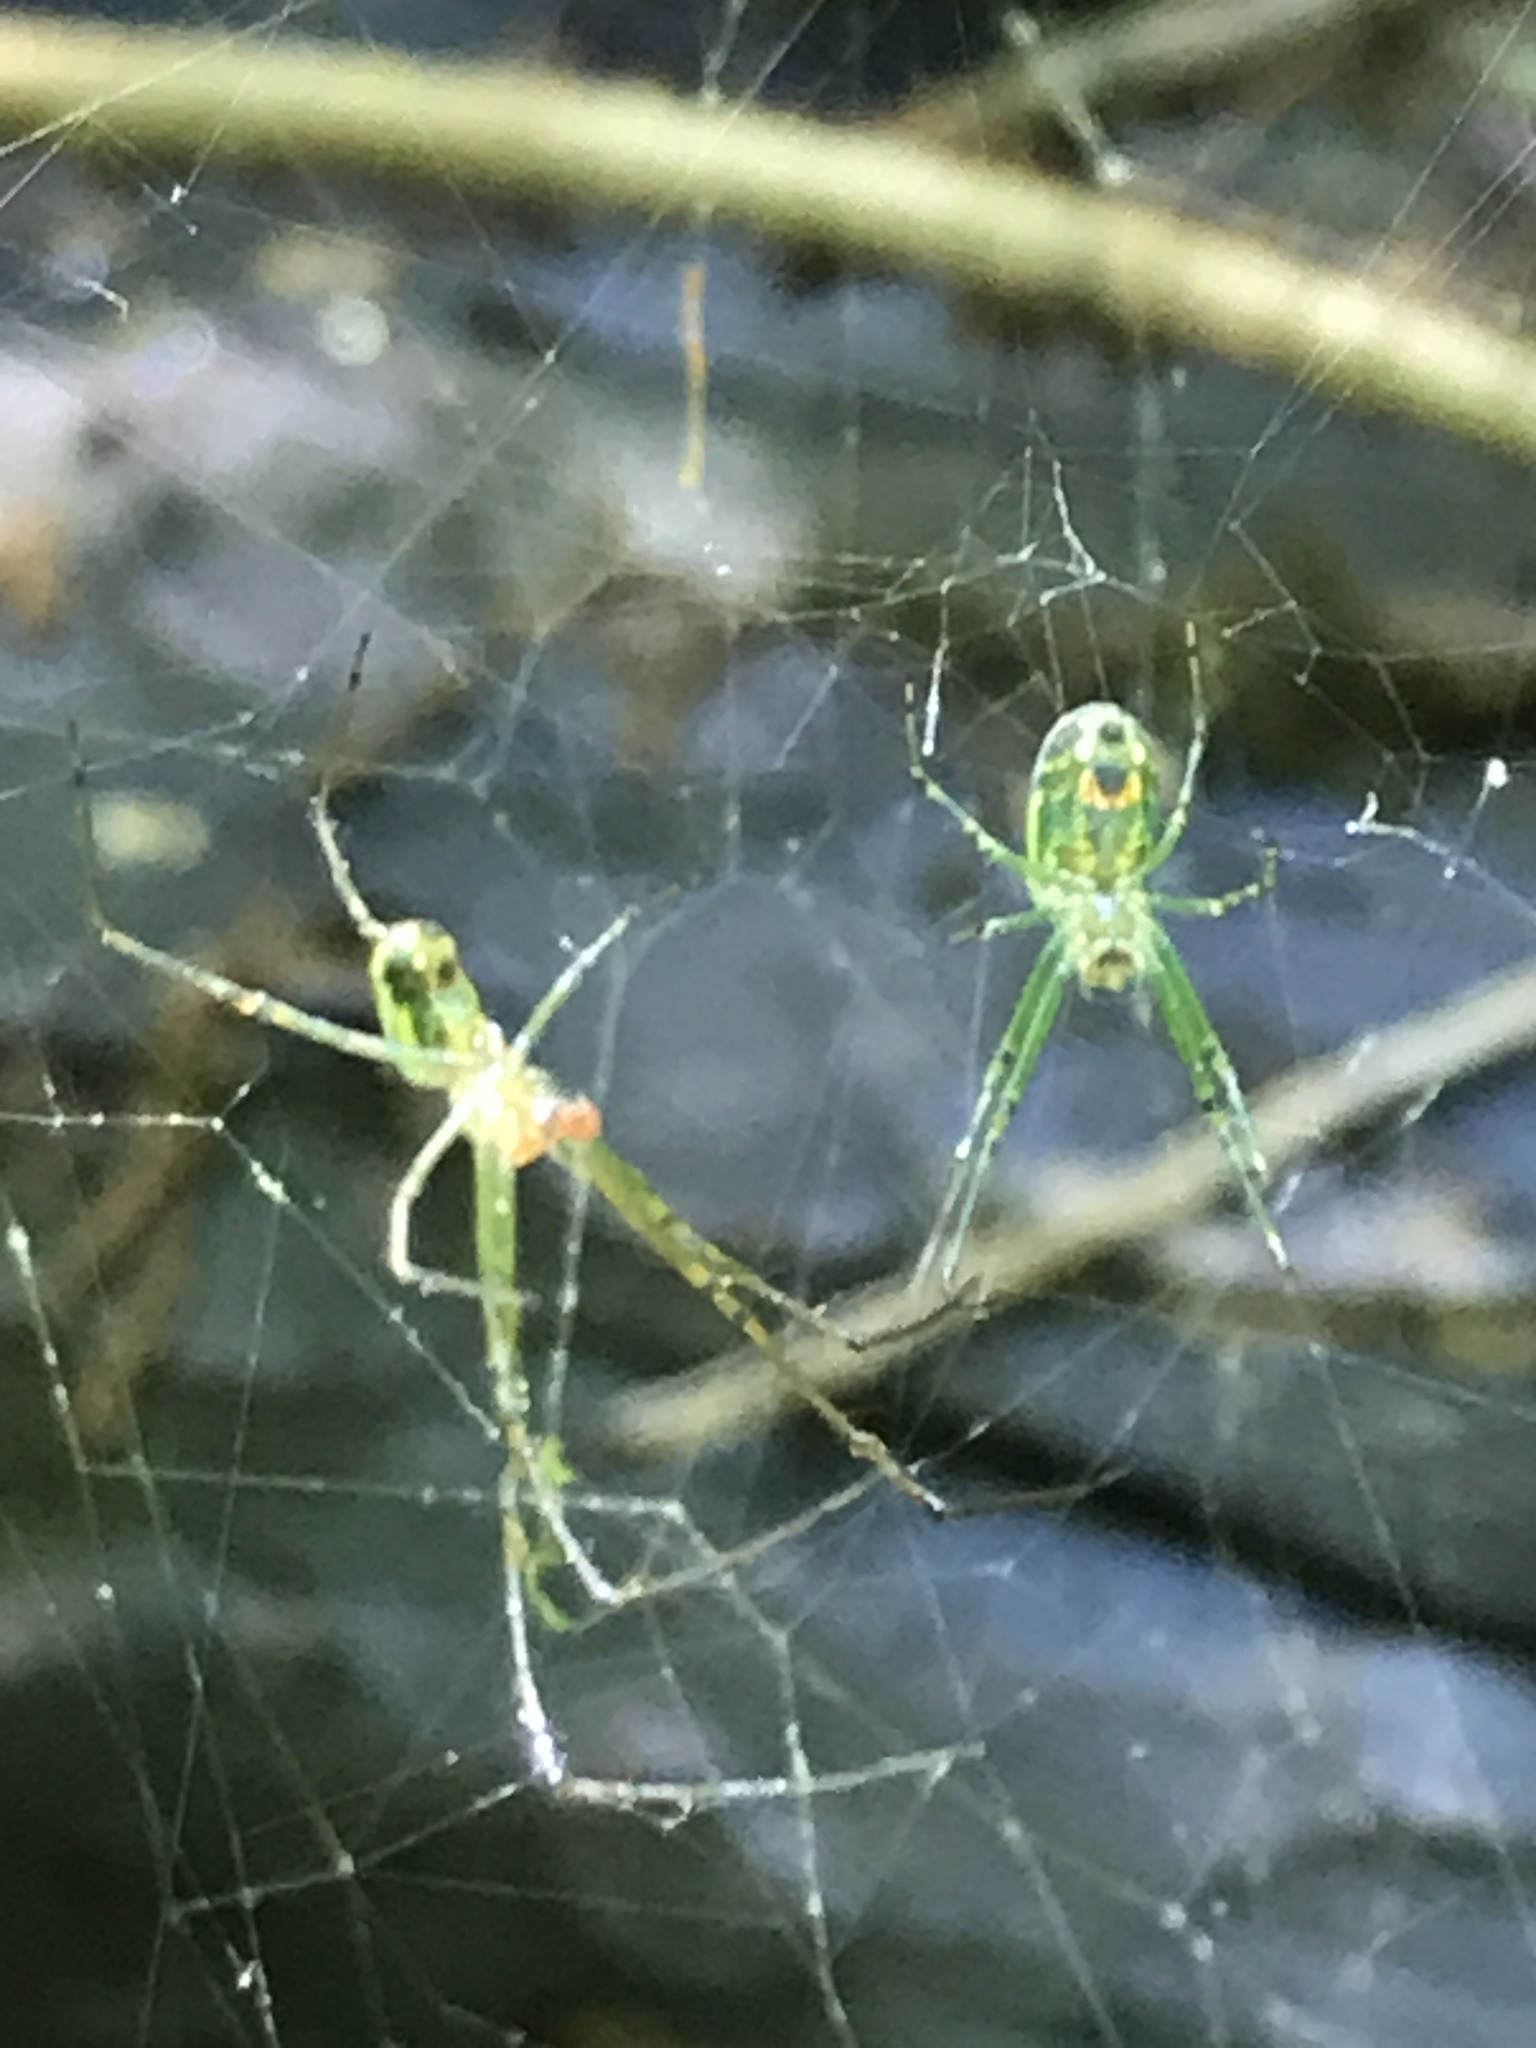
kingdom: Animalia
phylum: Arthropoda
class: Arachnida
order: Araneae
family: Tetragnathidae
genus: Leucauge
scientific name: Leucauge venusta
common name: Longjawed orb weavers
